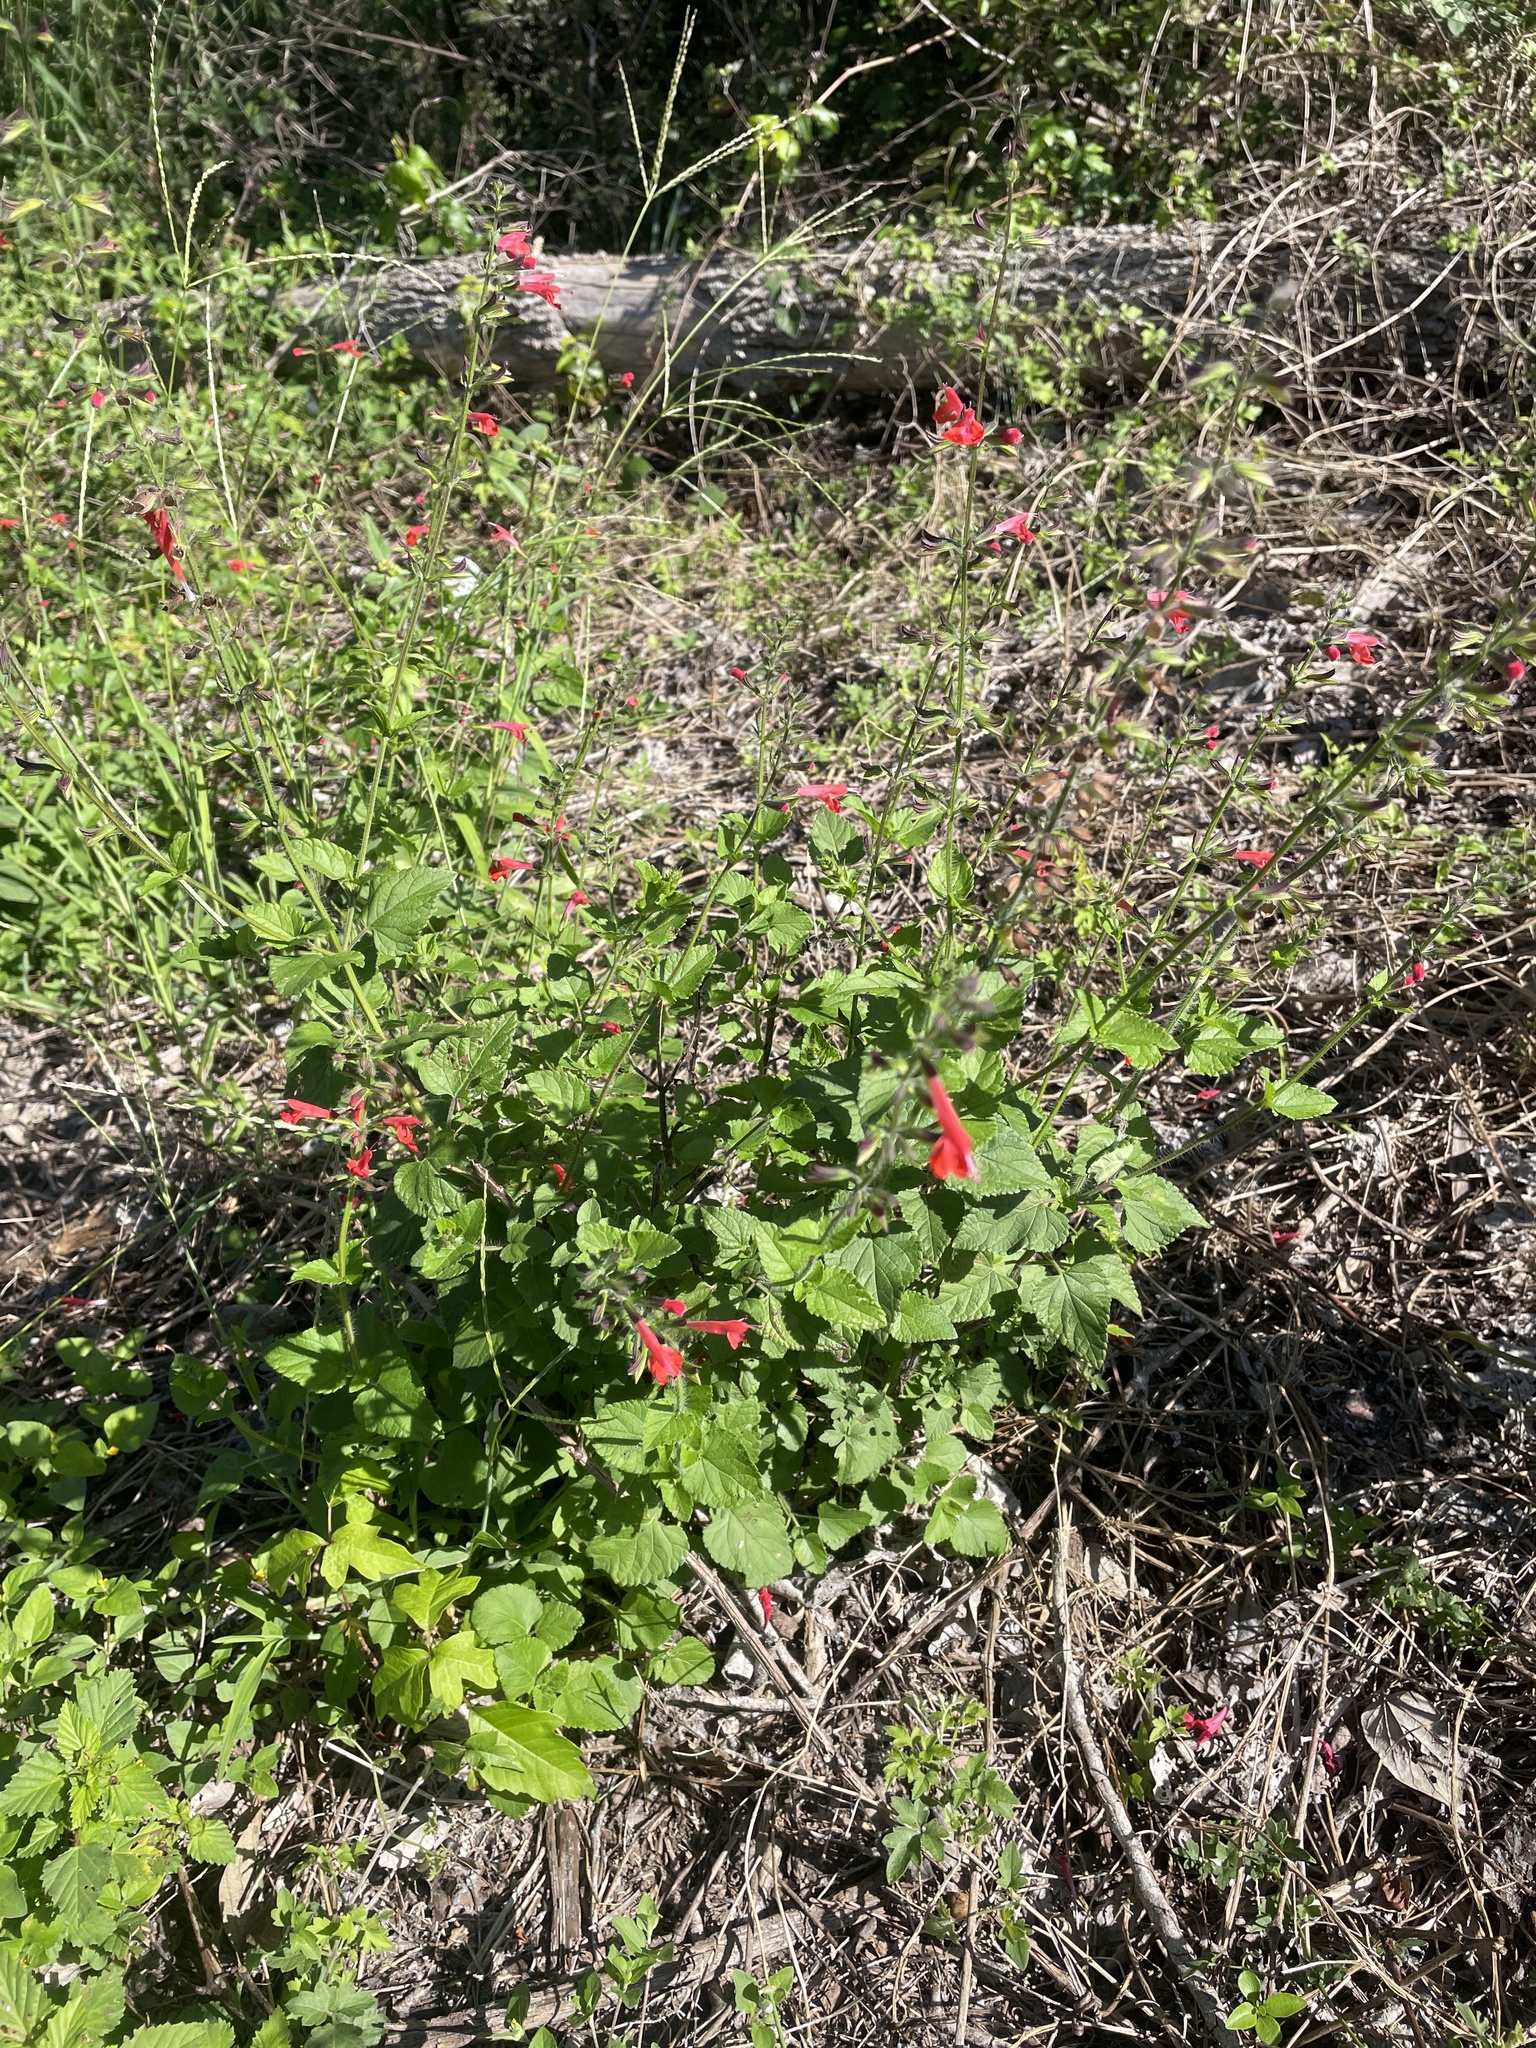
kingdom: Plantae
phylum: Tracheophyta
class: Magnoliopsida
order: Lamiales
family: Lamiaceae
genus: Salvia
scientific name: Salvia coccinea
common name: Blood sage
